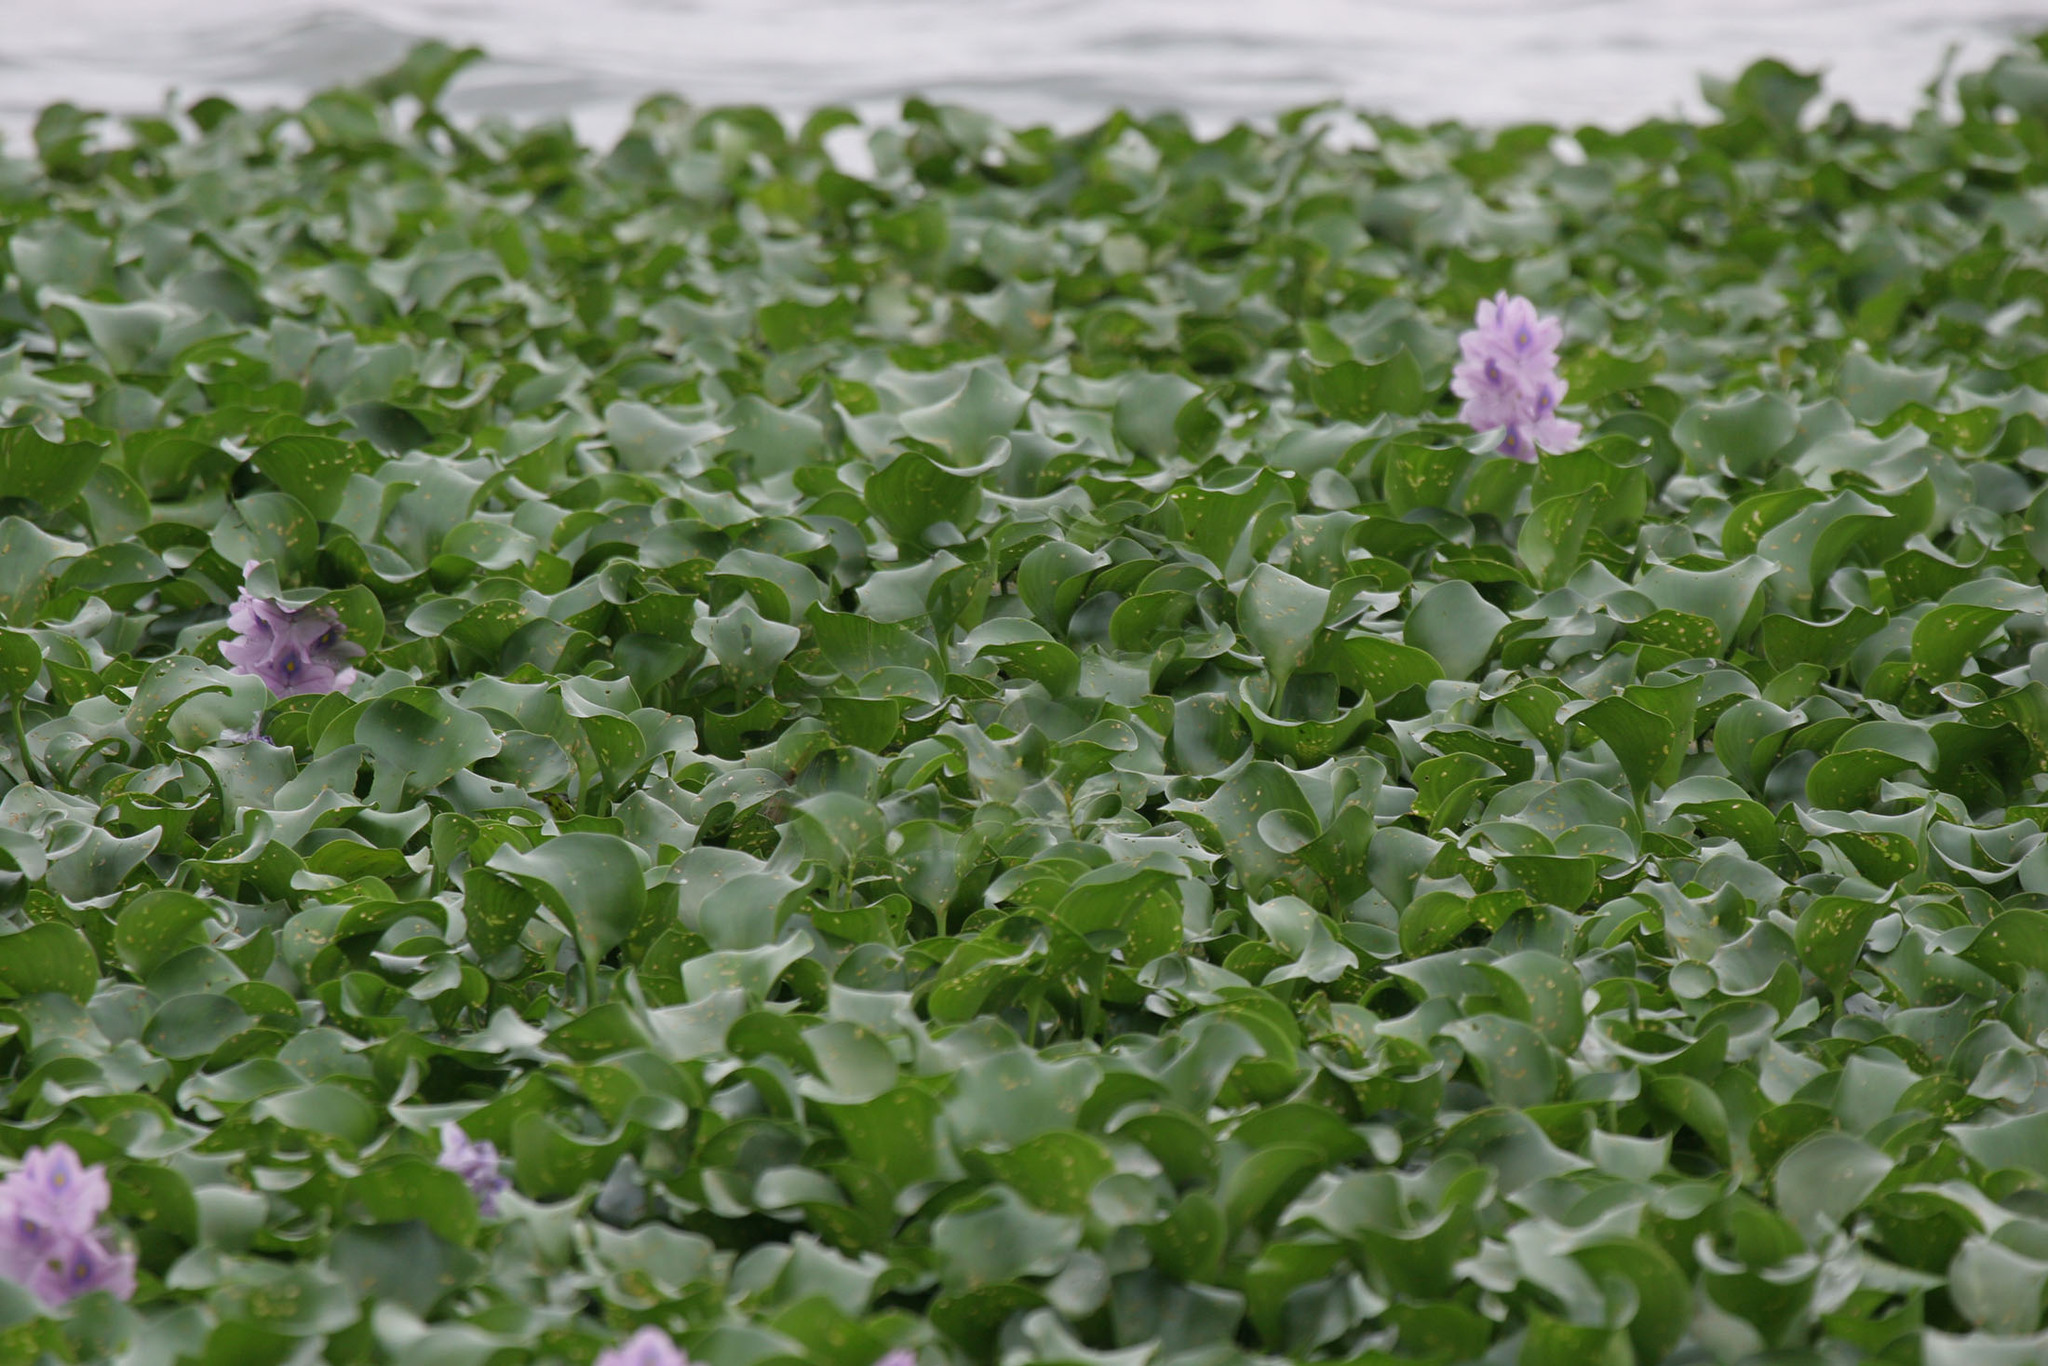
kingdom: Plantae
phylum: Tracheophyta
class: Liliopsida
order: Commelinales
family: Pontederiaceae
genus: Pontederia
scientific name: Pontederia crassipes
